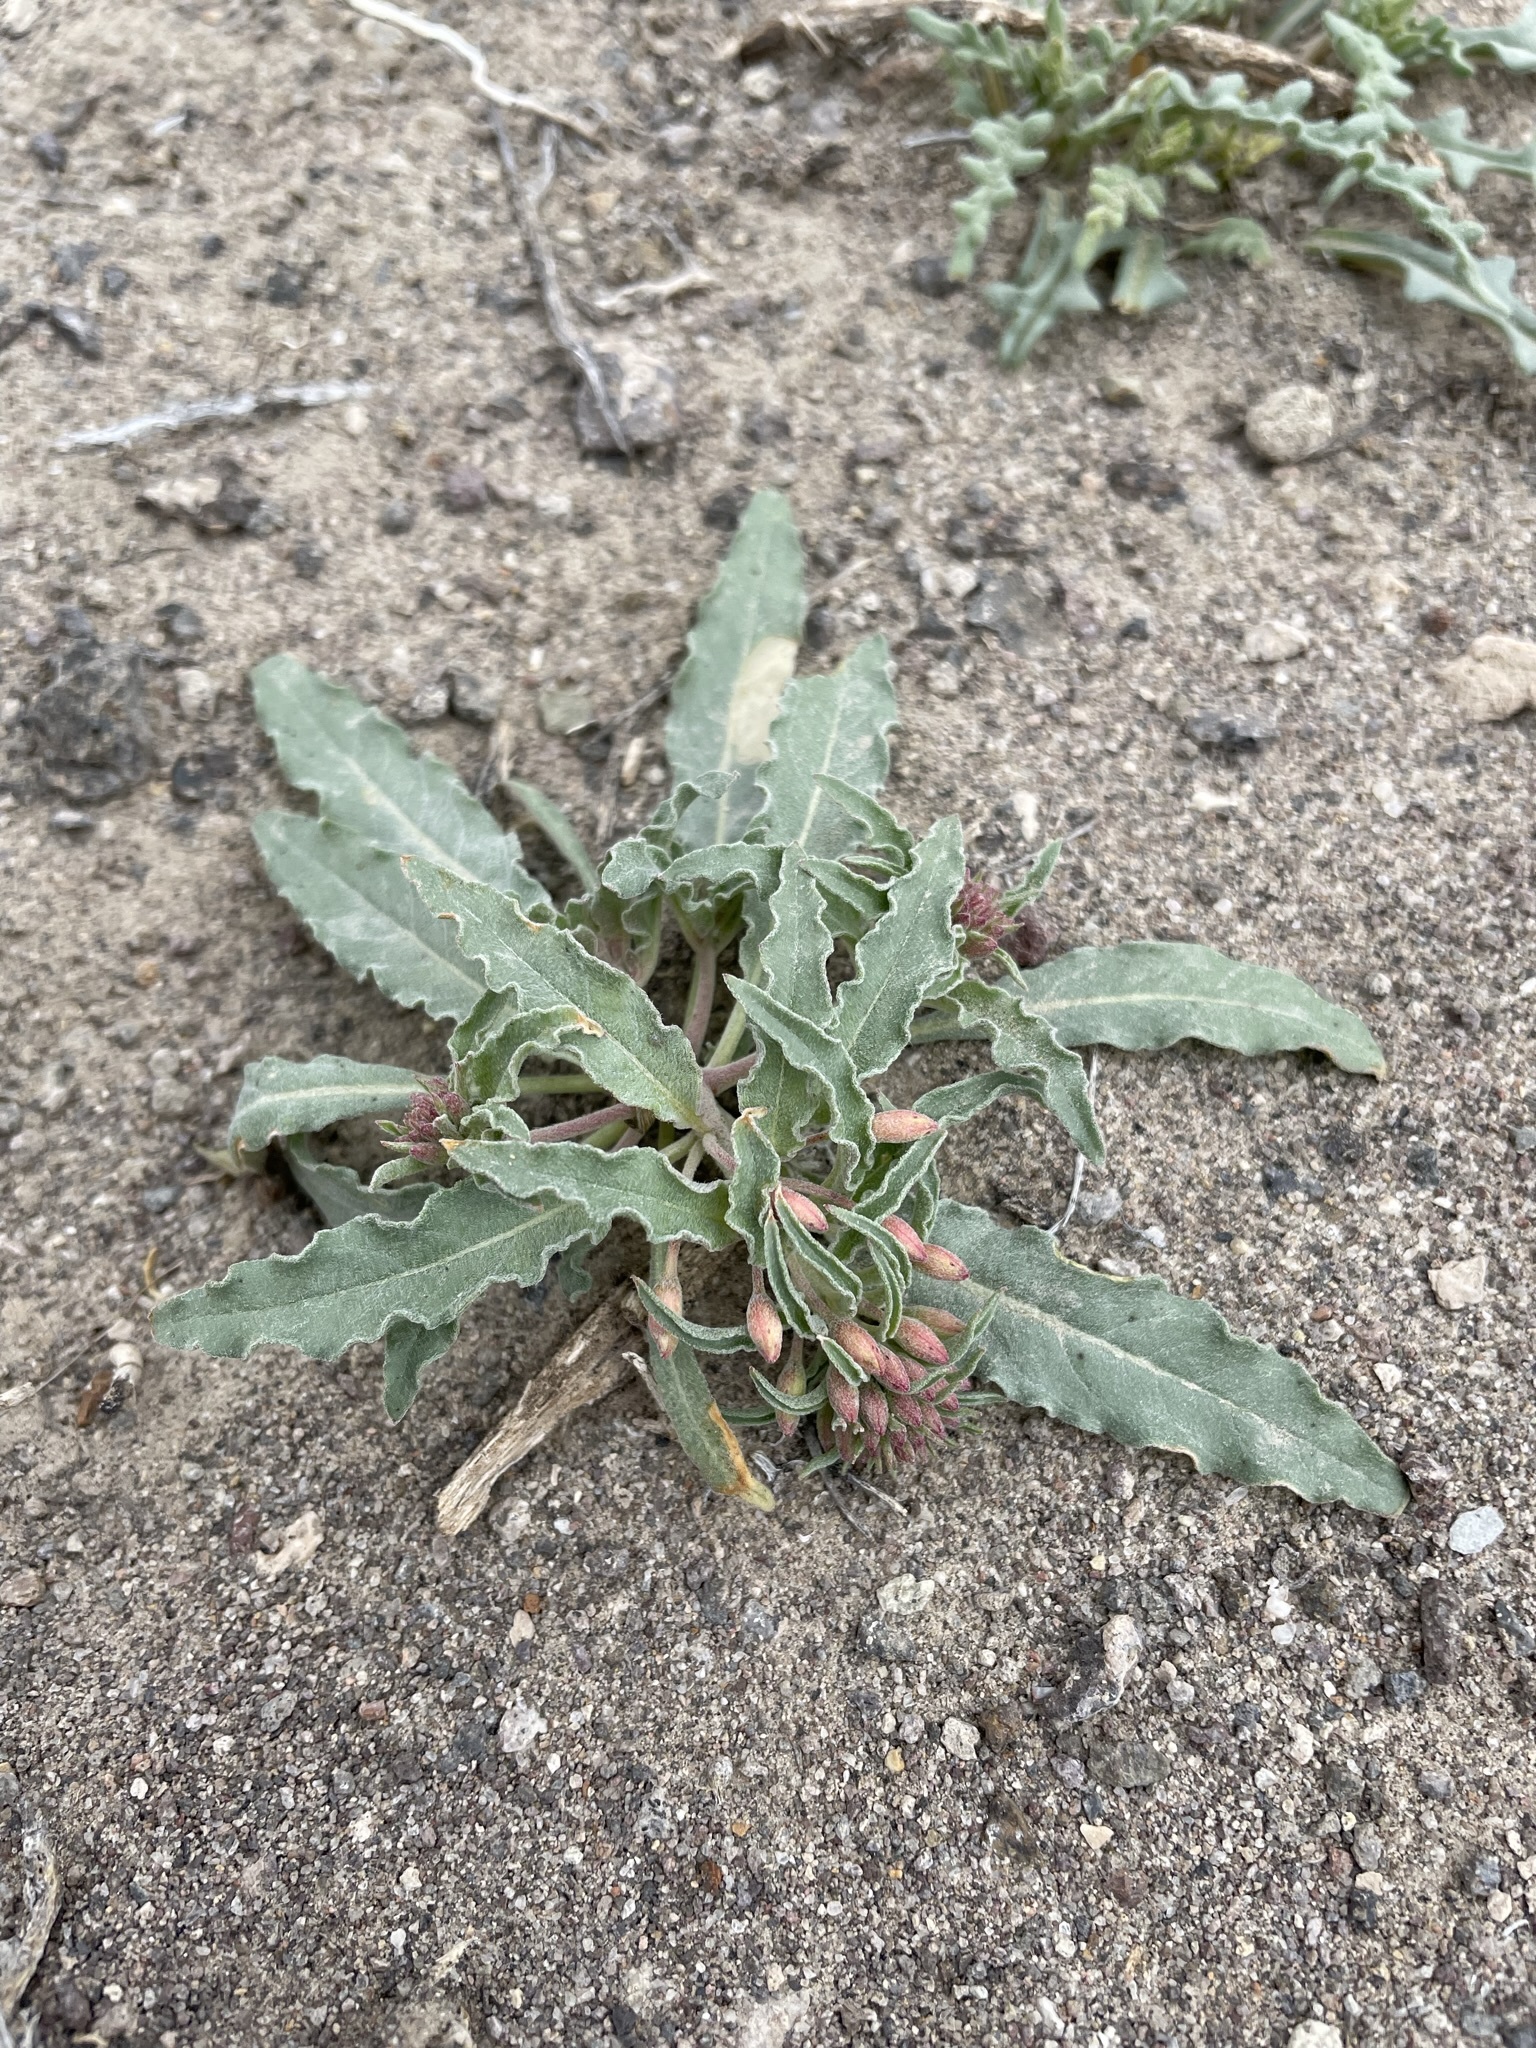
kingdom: Plantae
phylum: Tracheophyta
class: Magnoliopsida
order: Myrtales
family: Onagraceae
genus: Eremothera
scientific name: Eremothera boothii
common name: Booth's evening primrose
